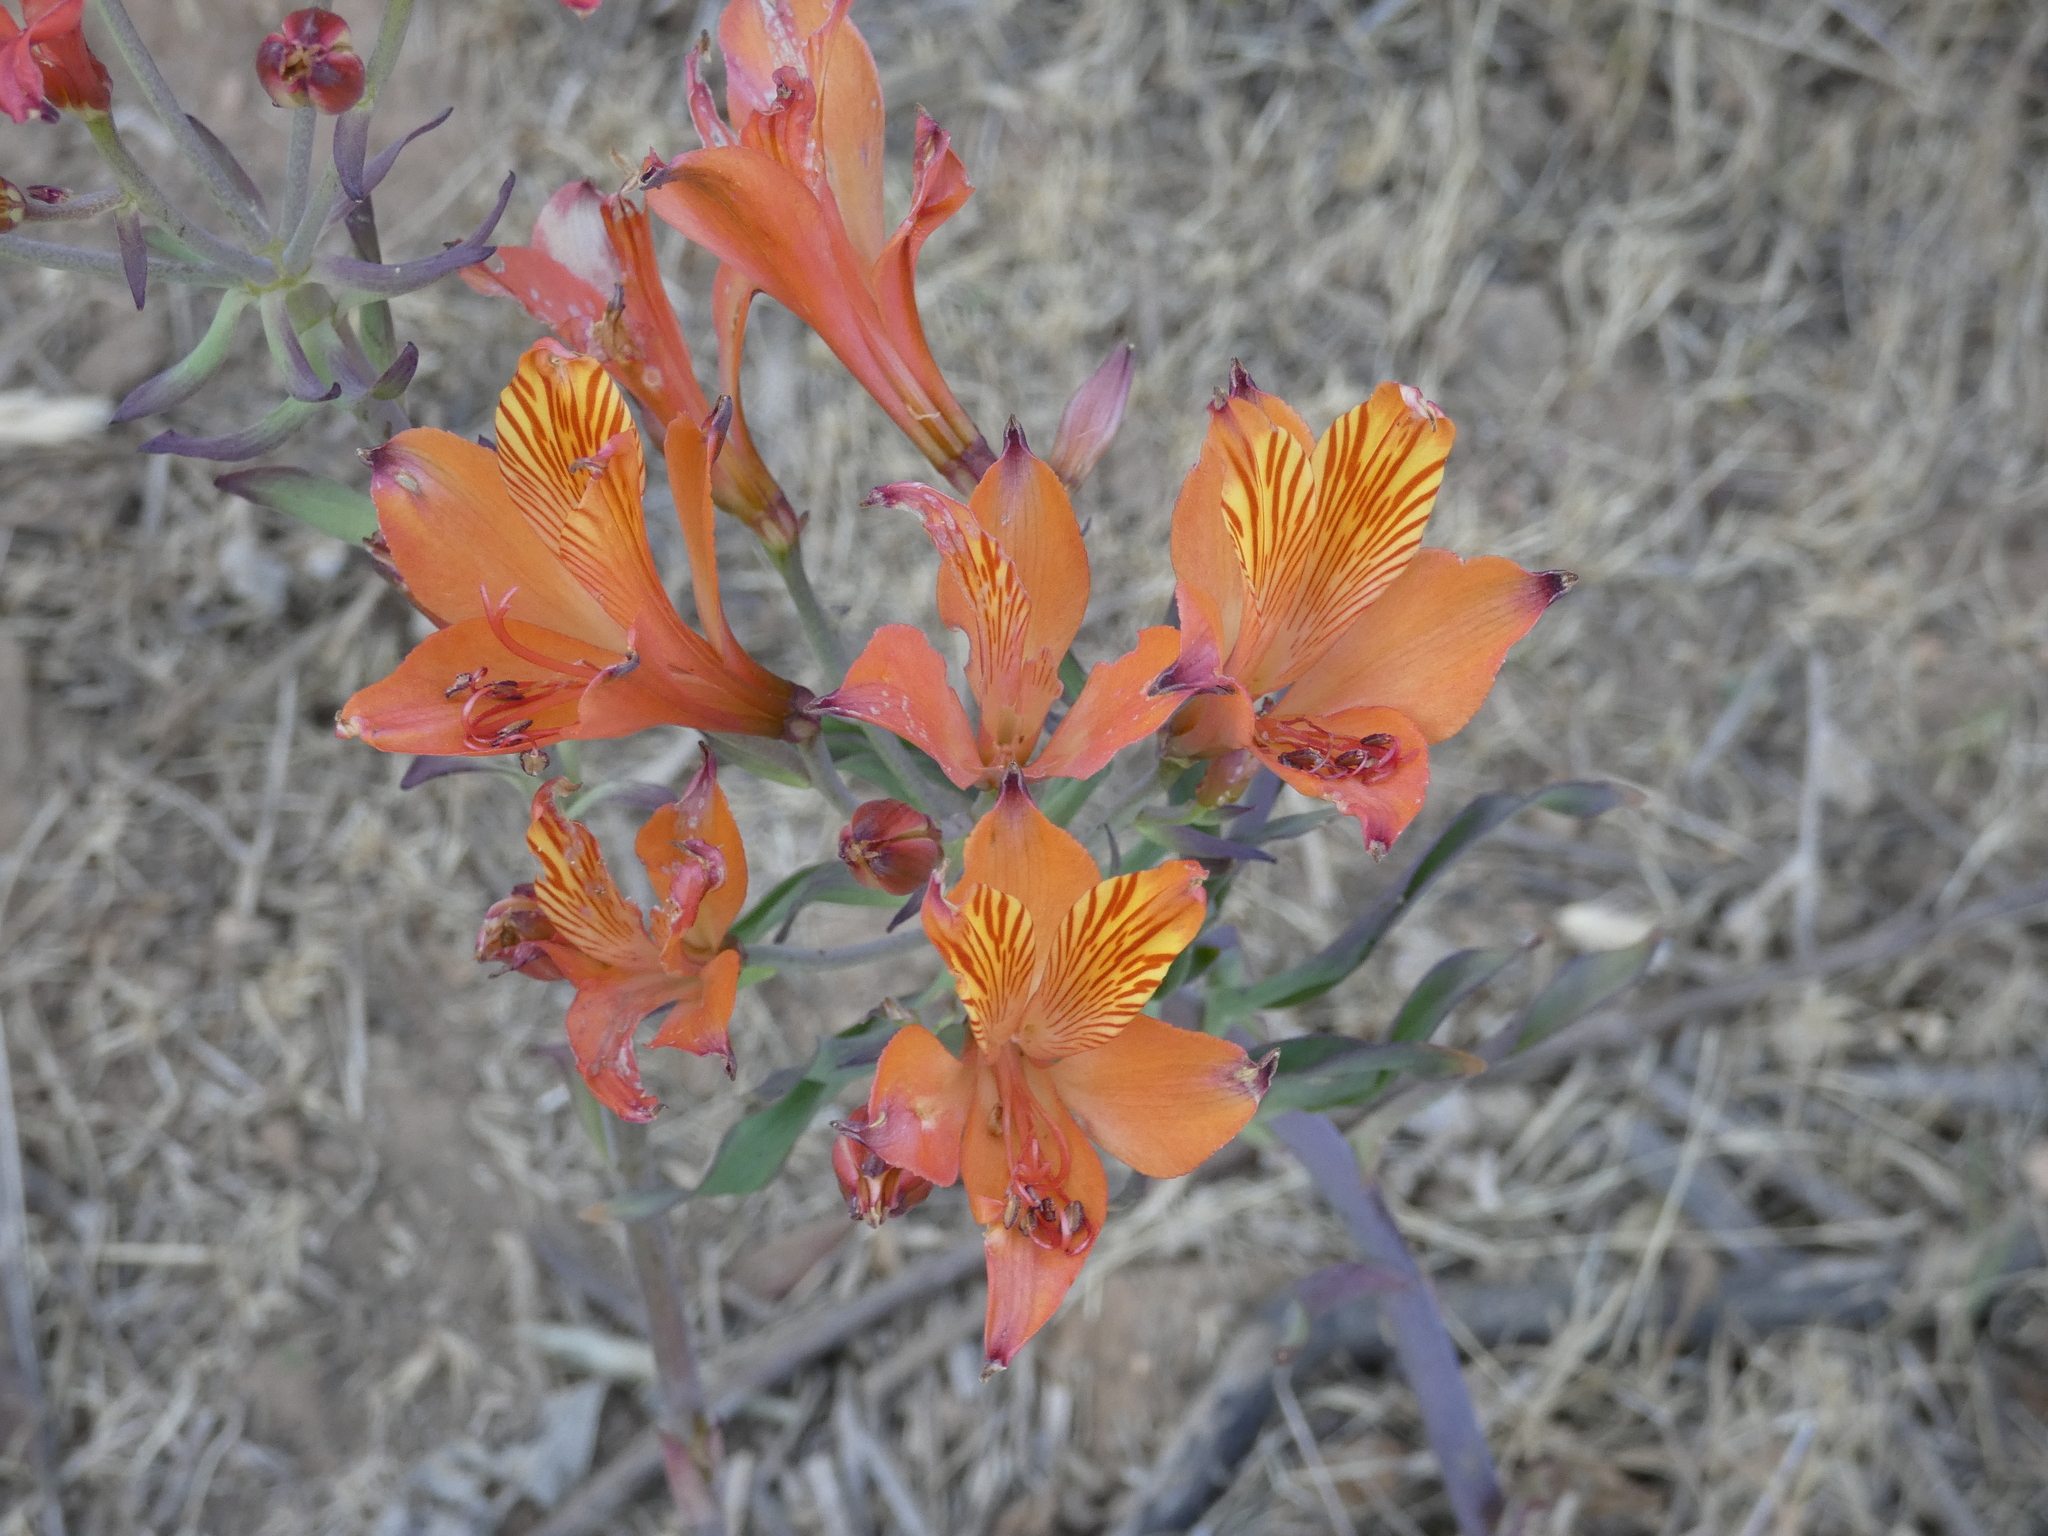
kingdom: Plantae
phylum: Tracheophyta
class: Liliopsida
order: Liliales
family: Alstroemeriaceae
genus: Alstroemeria
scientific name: Alstroemeria ligtu
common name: St. martin's-flower
